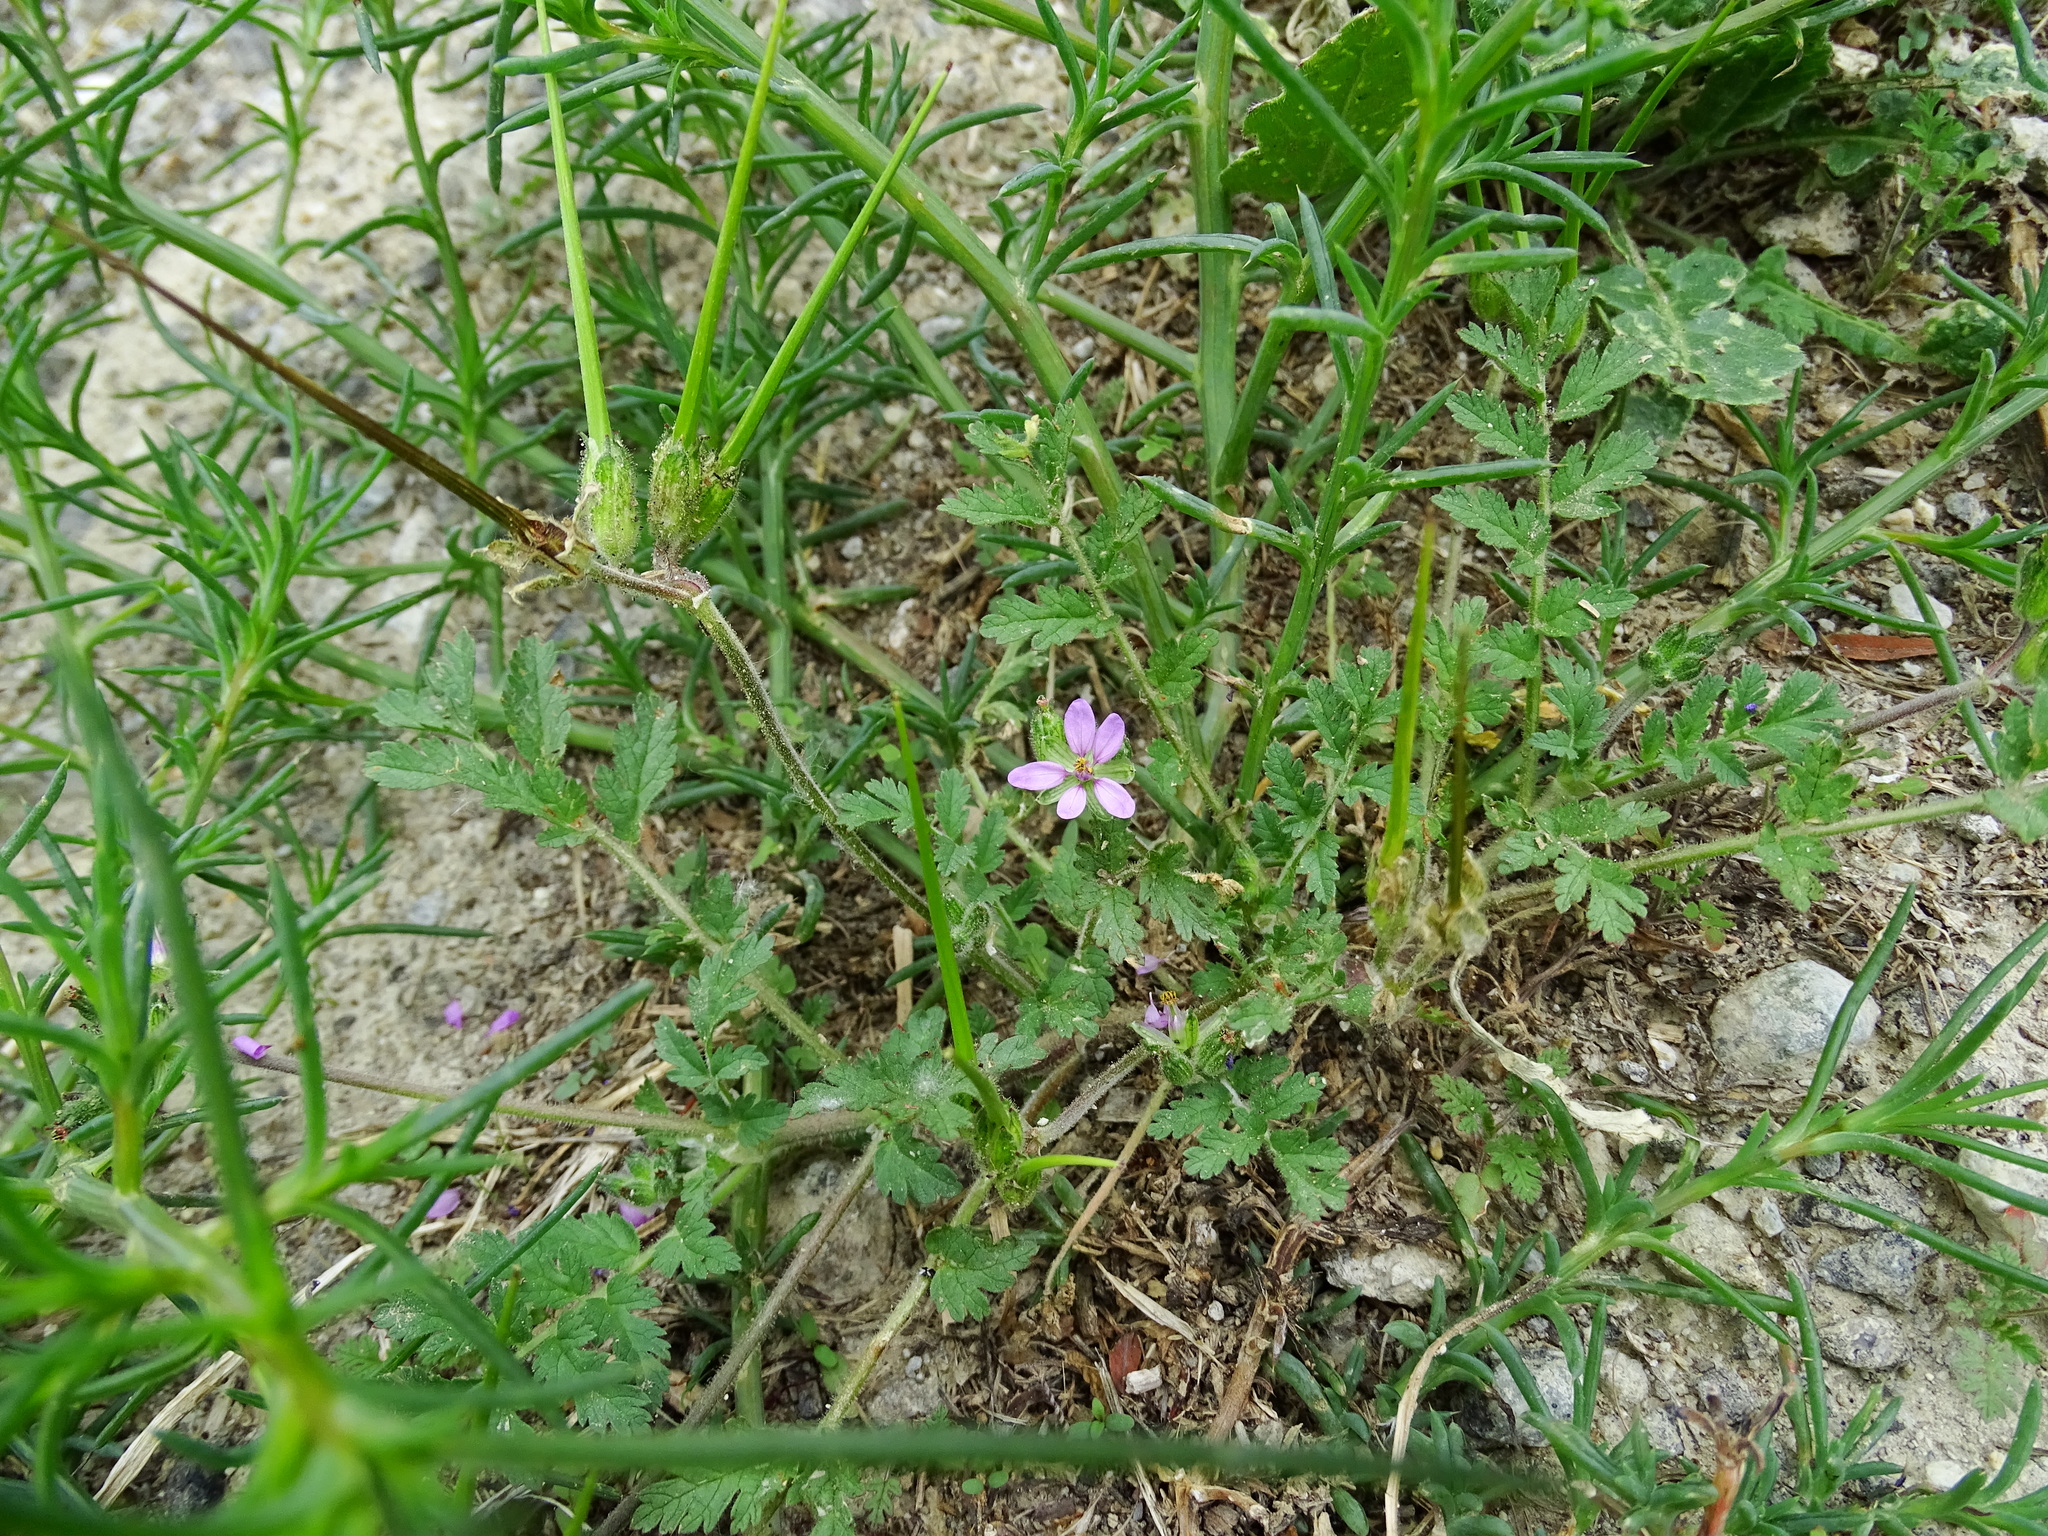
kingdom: Plantae
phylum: Tracheophyta
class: Magnoliopsida
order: Geraniales
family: Geraniaceae
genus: Erodium
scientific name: Erodium cicutarium
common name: Common stork's-bill
